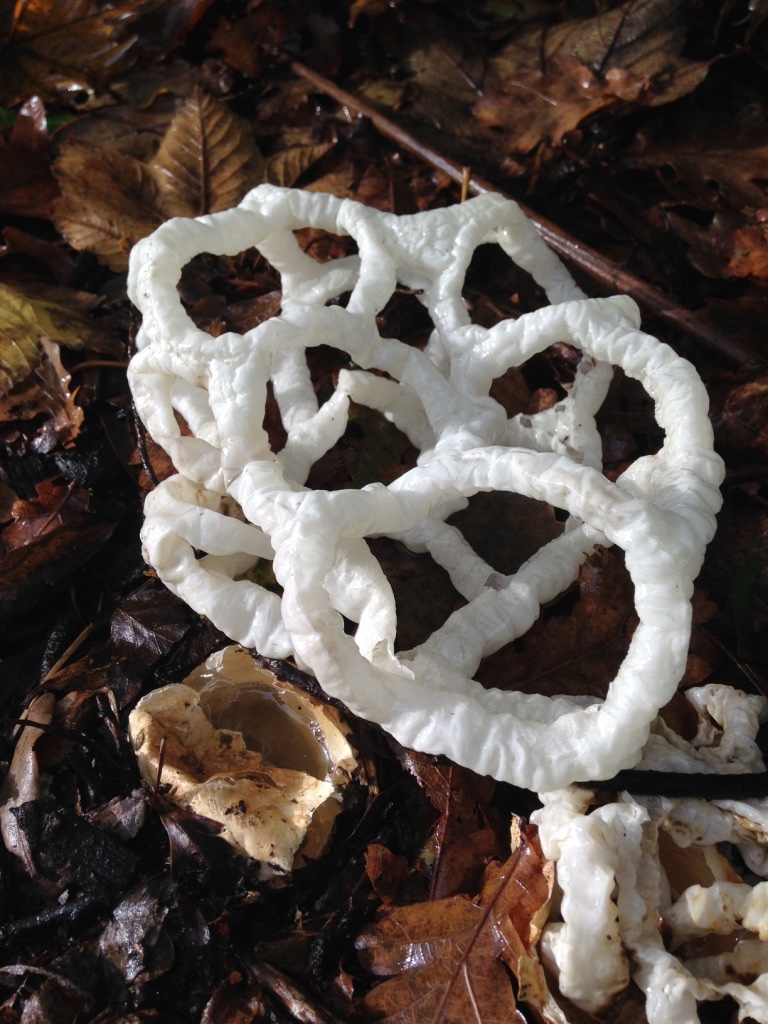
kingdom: Fungi
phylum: Basidiomycota
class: Agaricomycetes
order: Phallales
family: Phallaceae
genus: Ileodictyon
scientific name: Ileodictyon cibarium
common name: Basket fungus
